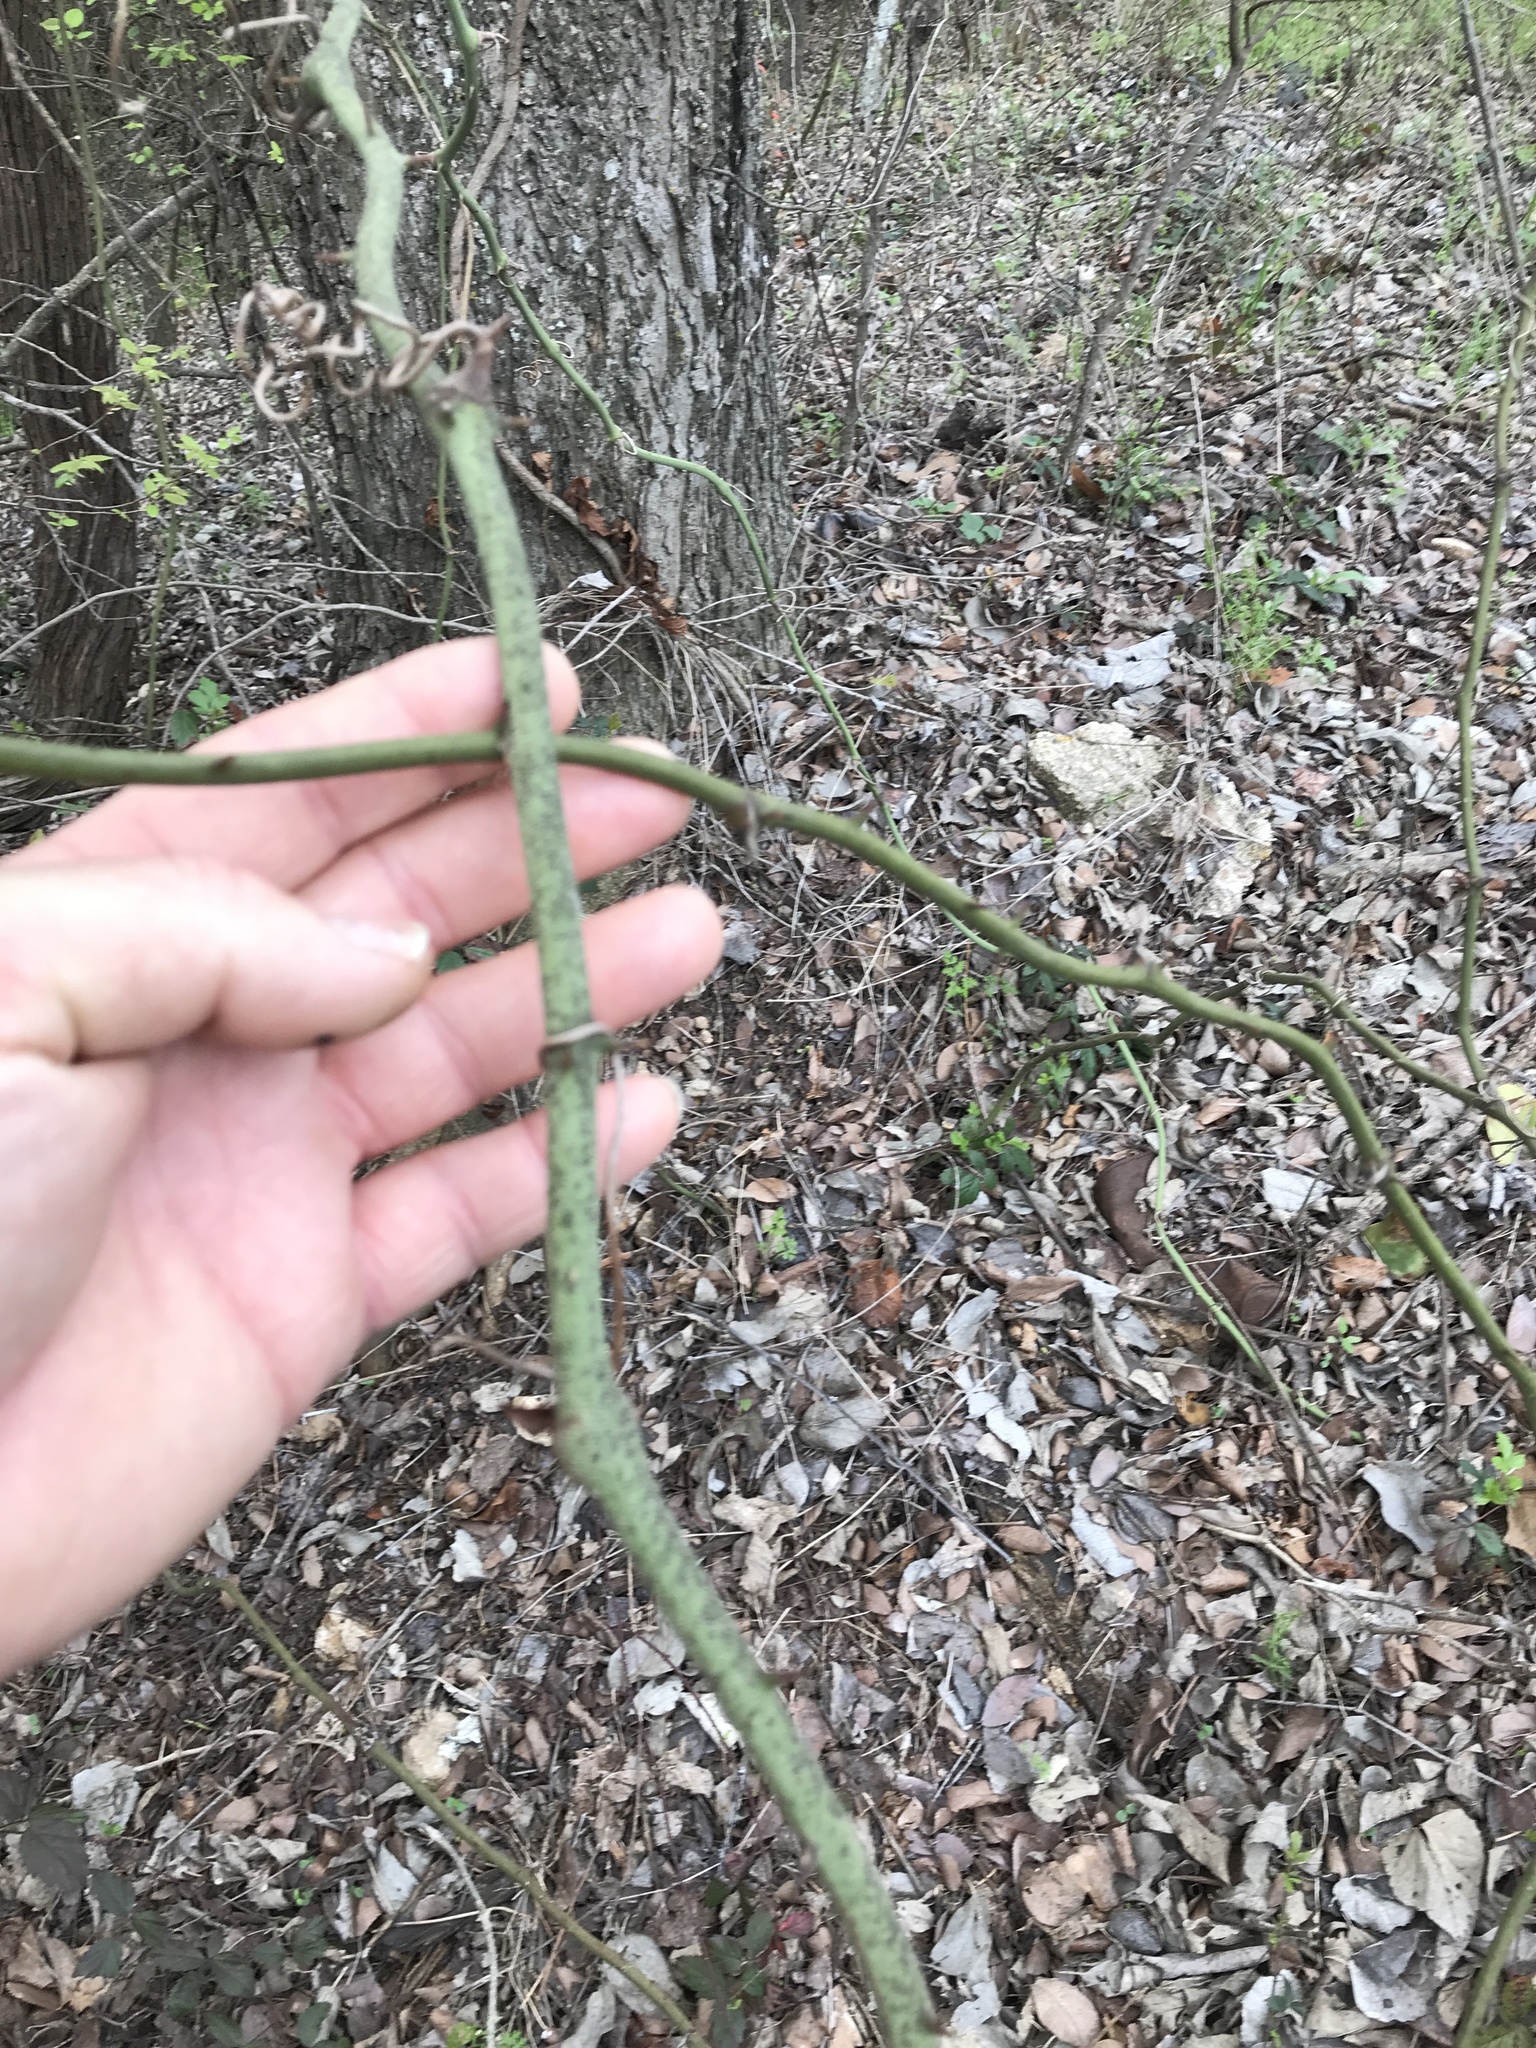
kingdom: Plantae
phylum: Tracheophyta
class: Liliopsida
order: Liliales
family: Smilacaceae
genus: Smilax
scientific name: Smilax bona-nox
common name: Catbrier
